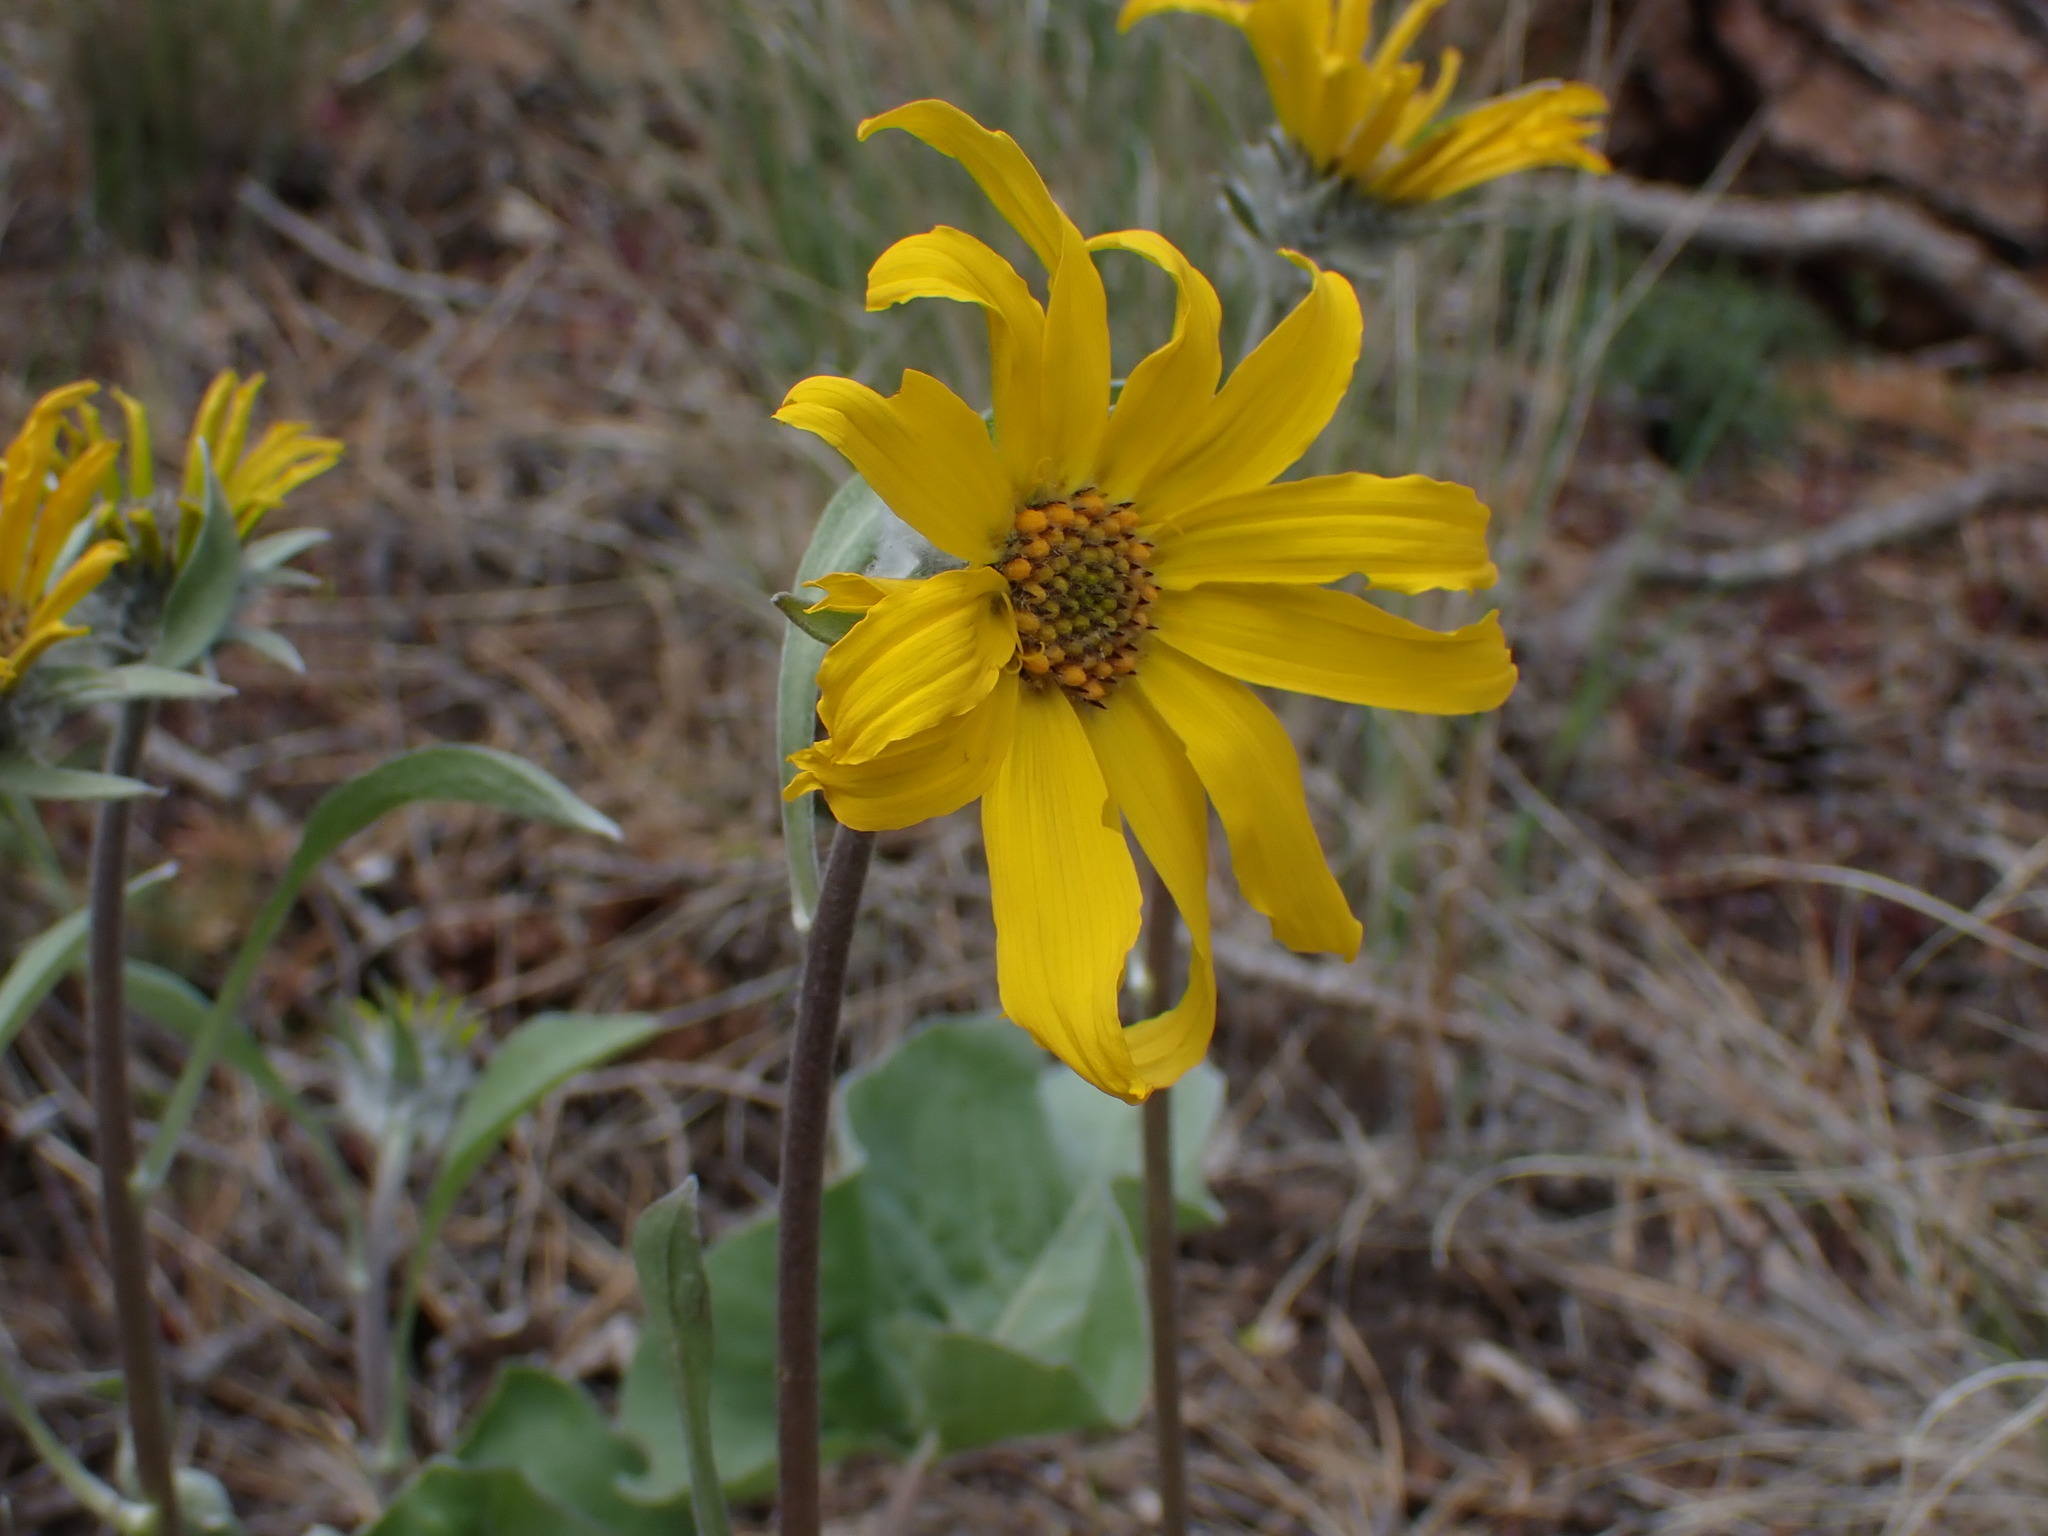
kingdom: Plantae
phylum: Tracheophyta
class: Magnoliopsida
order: Asterales
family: Asteraceae
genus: Wyethia
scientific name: Wyethia sagittata
